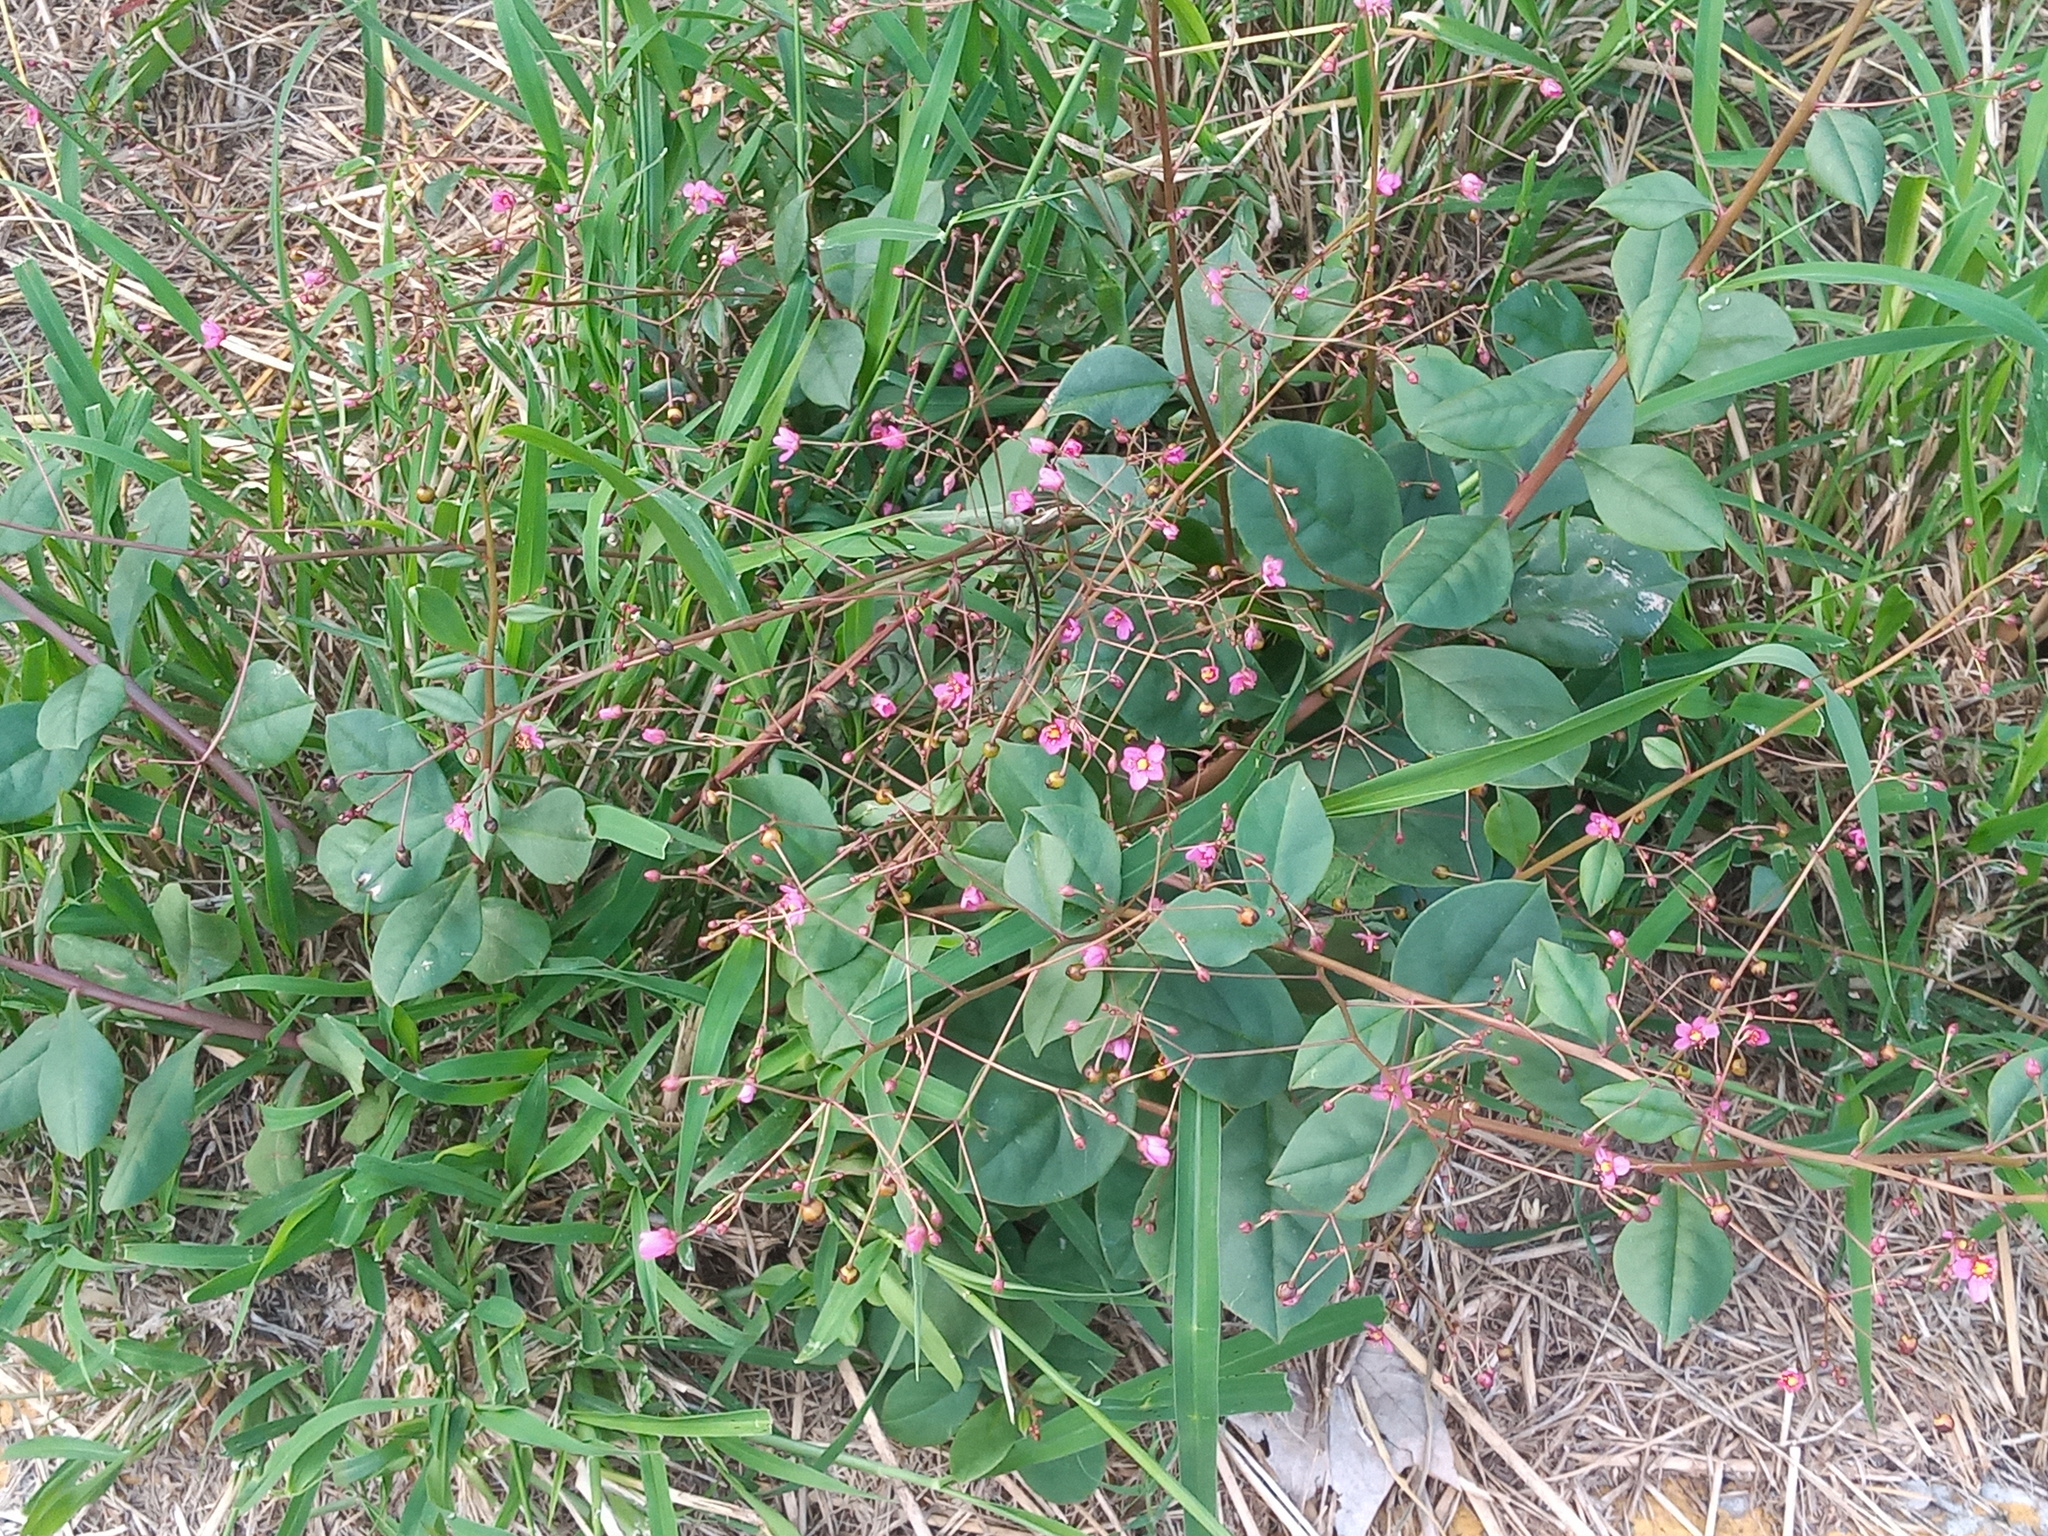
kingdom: Plantae
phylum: Tracheophyta
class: Magnoliopsida
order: Caryophyllales
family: Talinaceae
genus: Talinum
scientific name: Talinum paniculatum
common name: Jewels of opar
